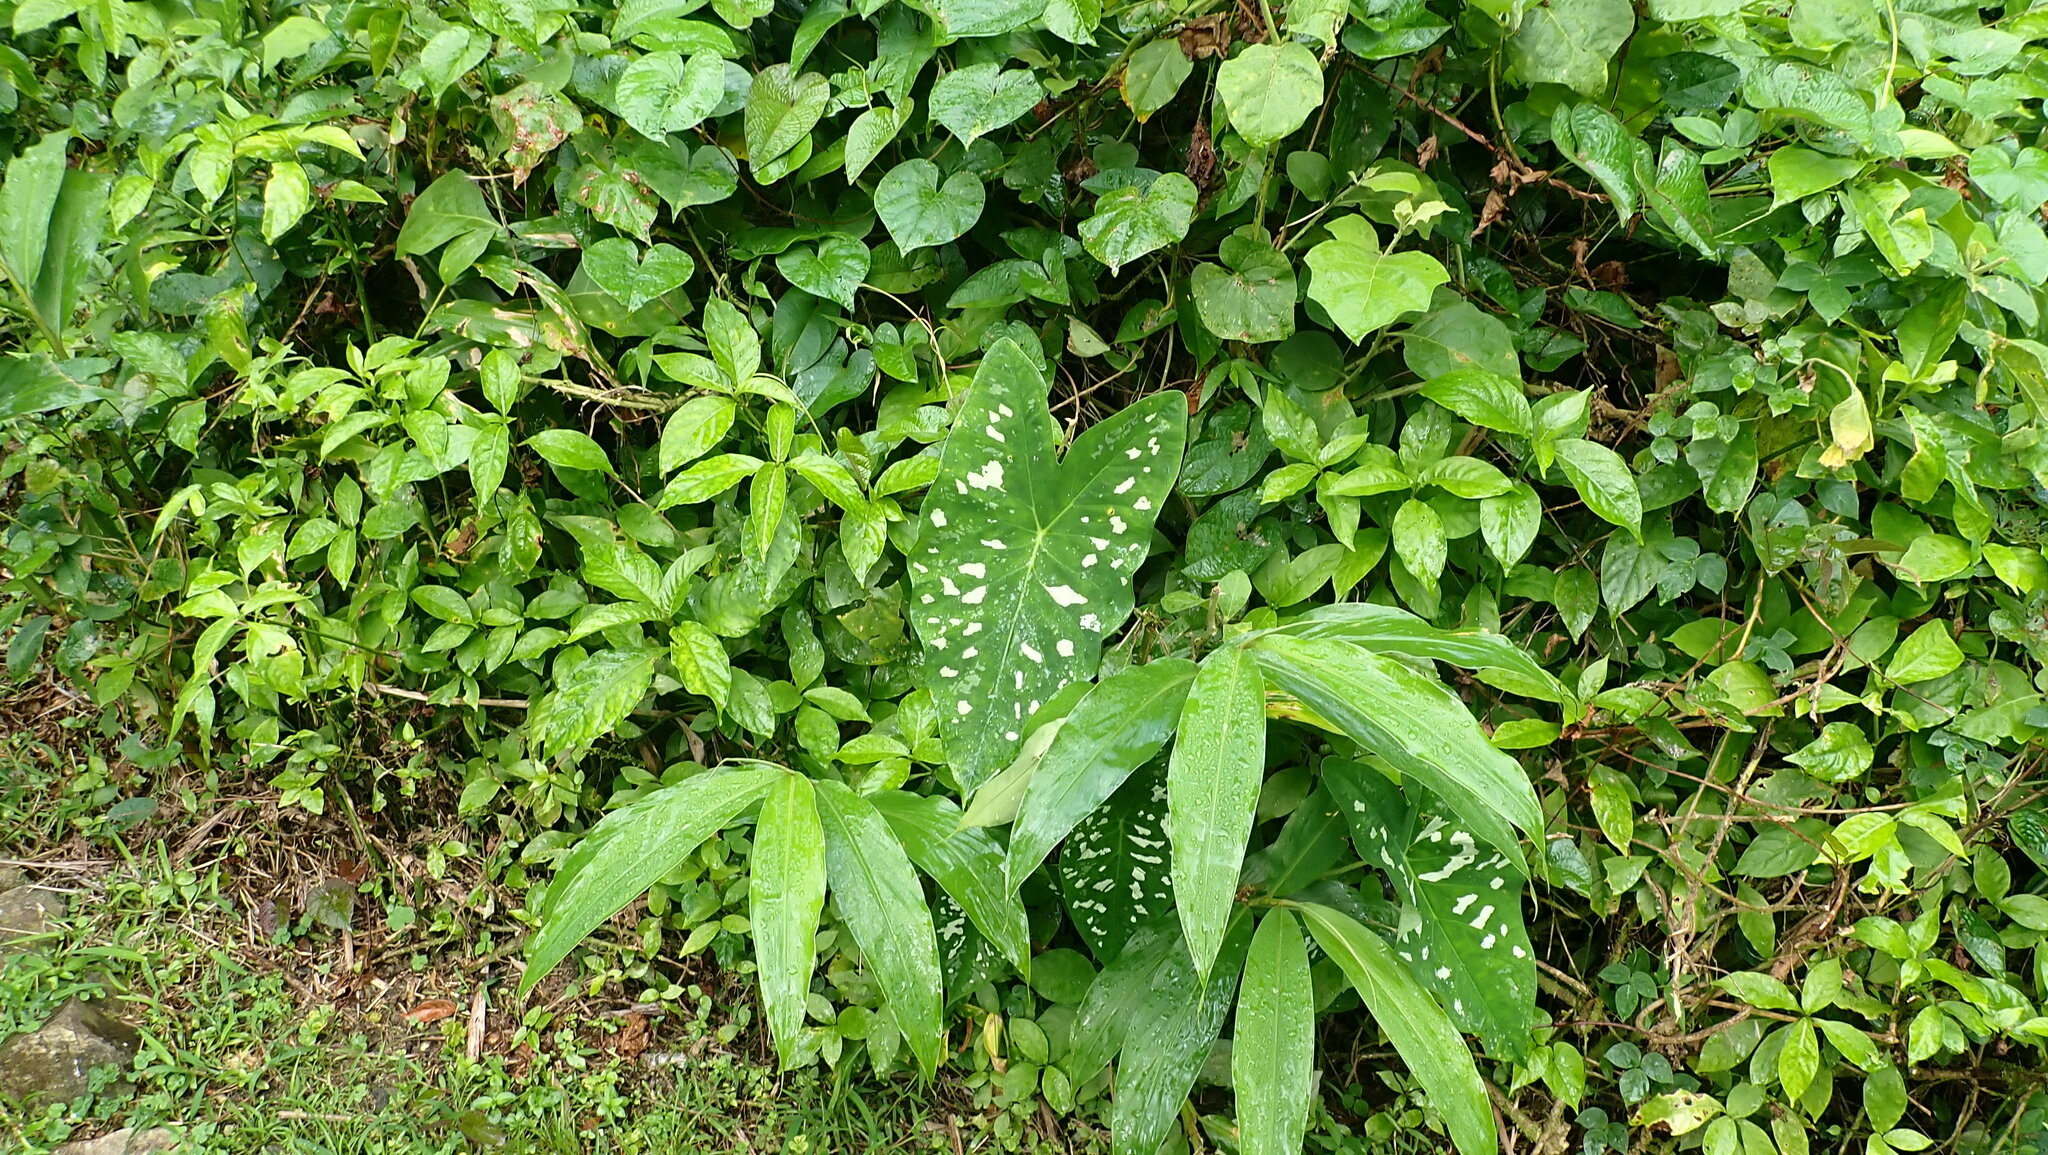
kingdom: Plantae
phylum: Tracheophyta
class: Liliopsida
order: Alismatales
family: Araceae
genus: Caladium
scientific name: Caladium bicolor
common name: Artist's pallet
